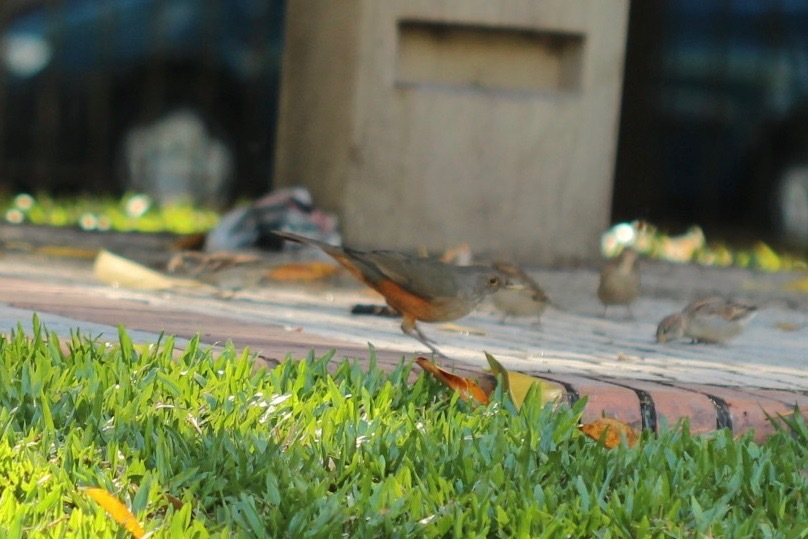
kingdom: Animalia
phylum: Chordata
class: Aves
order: Passeriformes
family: Turdidae
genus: Turdus
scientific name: Turdus rufiventris
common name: Rufous-bellied thrush
